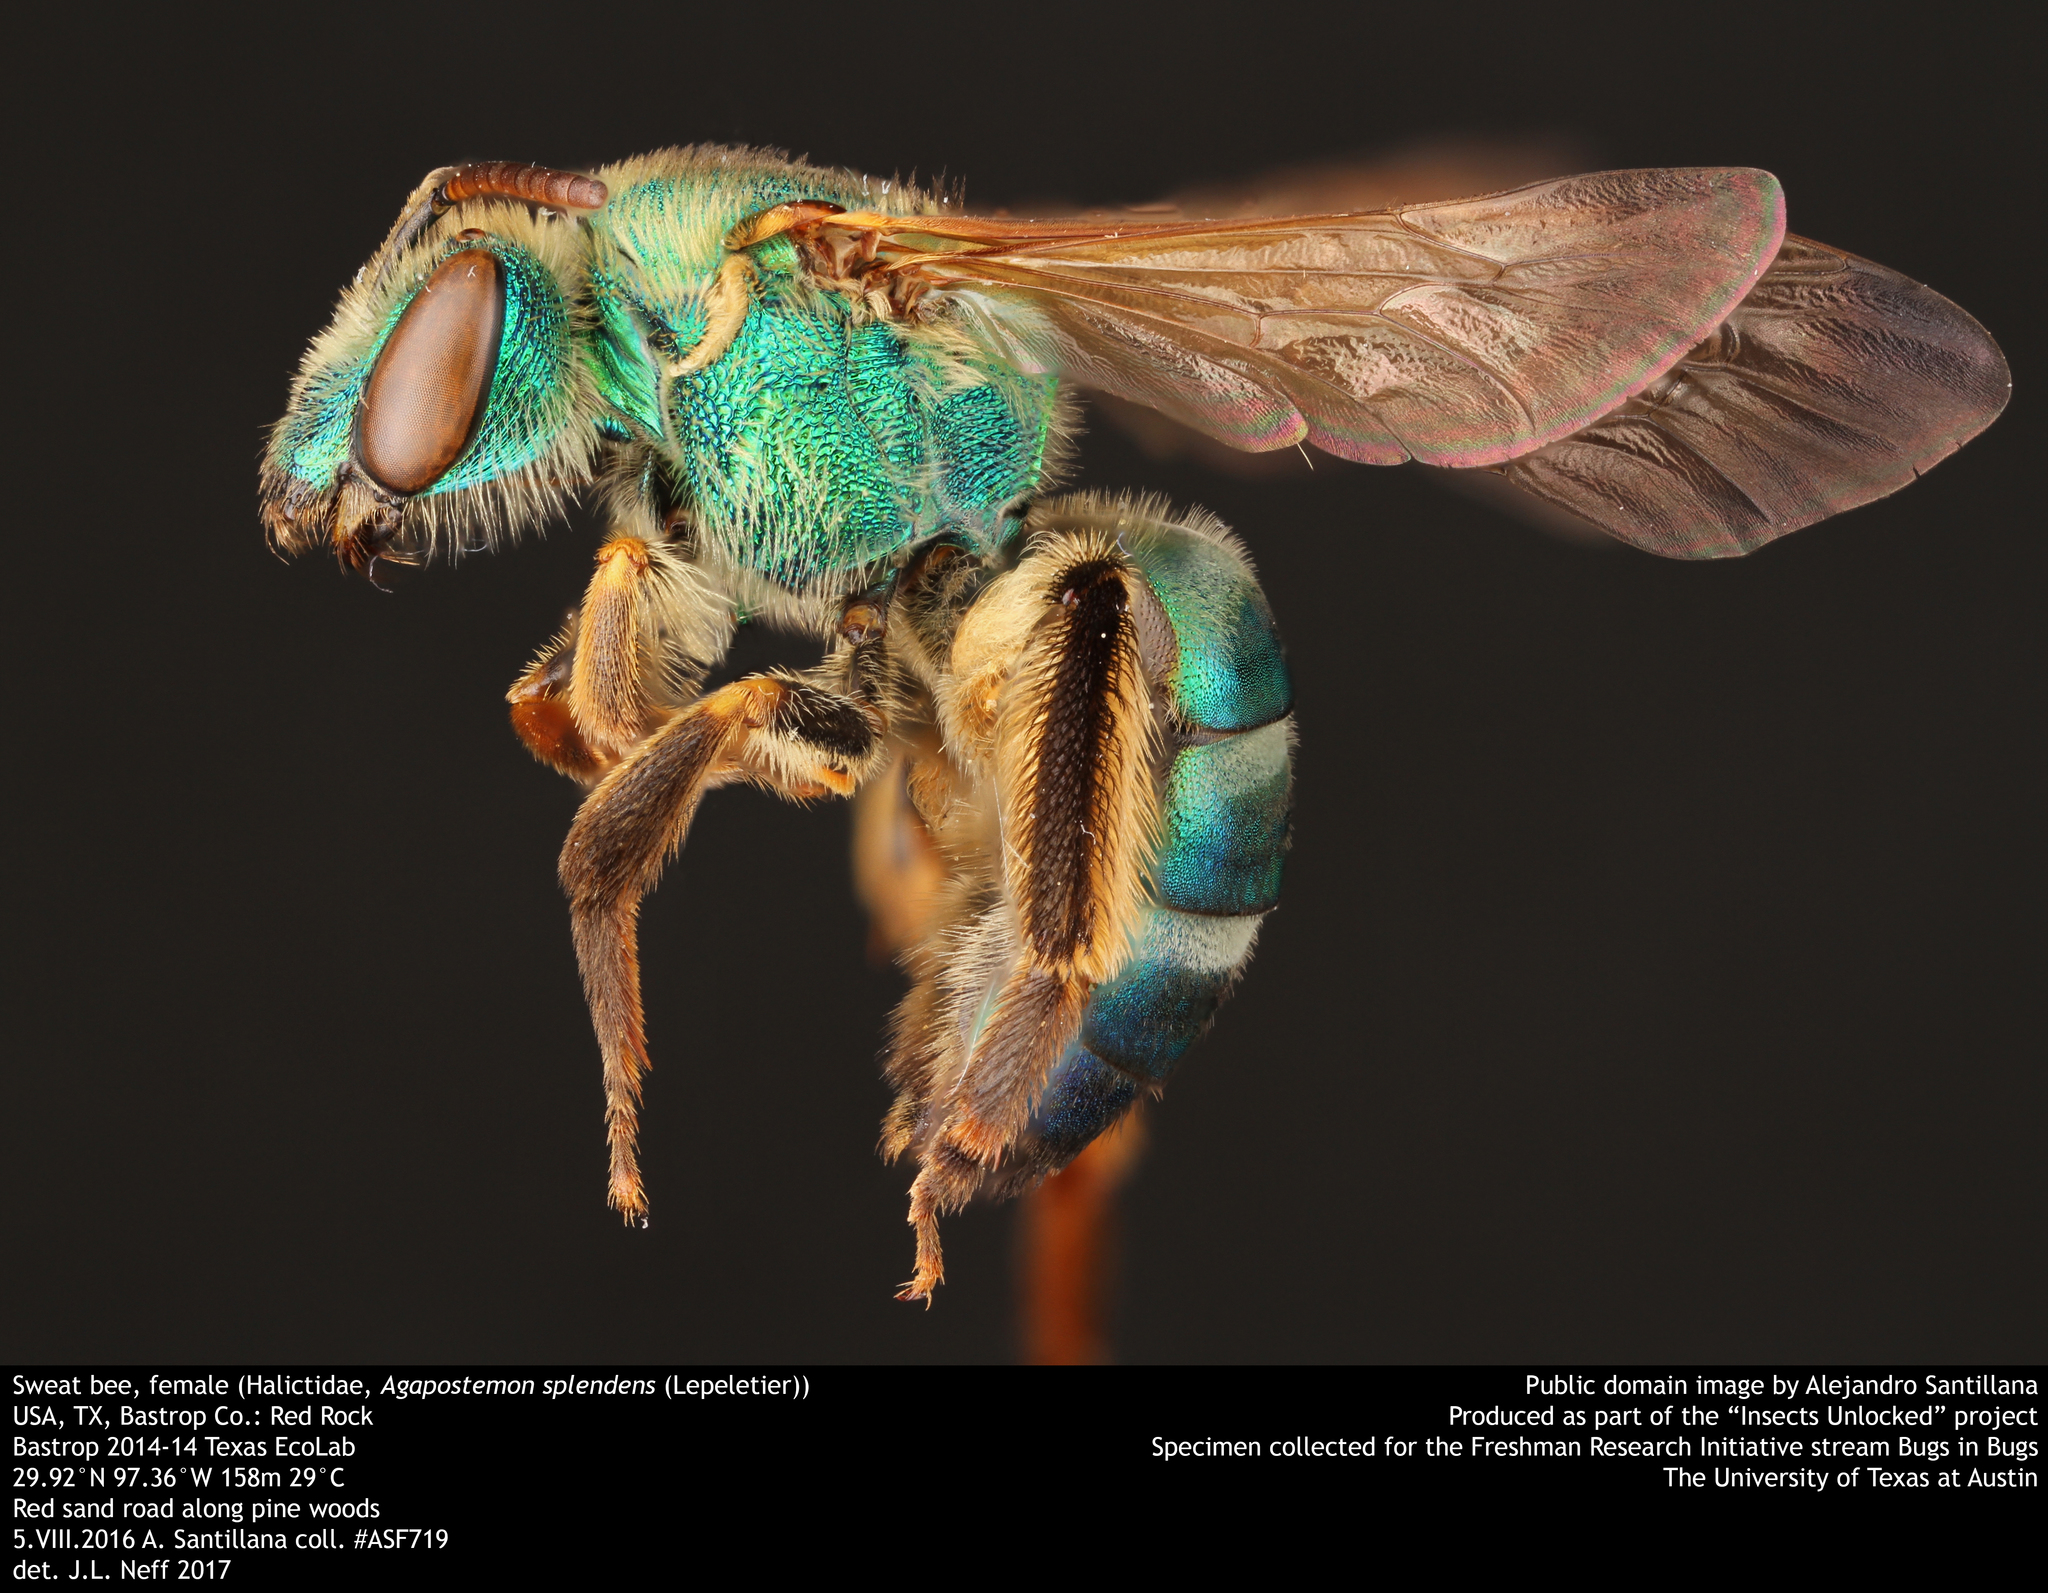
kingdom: Animalia
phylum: Arthropoda
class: Insecta
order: Hymenoptera
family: Halictidae
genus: Agapostemon
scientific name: Agapostemon splendens
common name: Brown-winged striped sweat bee
